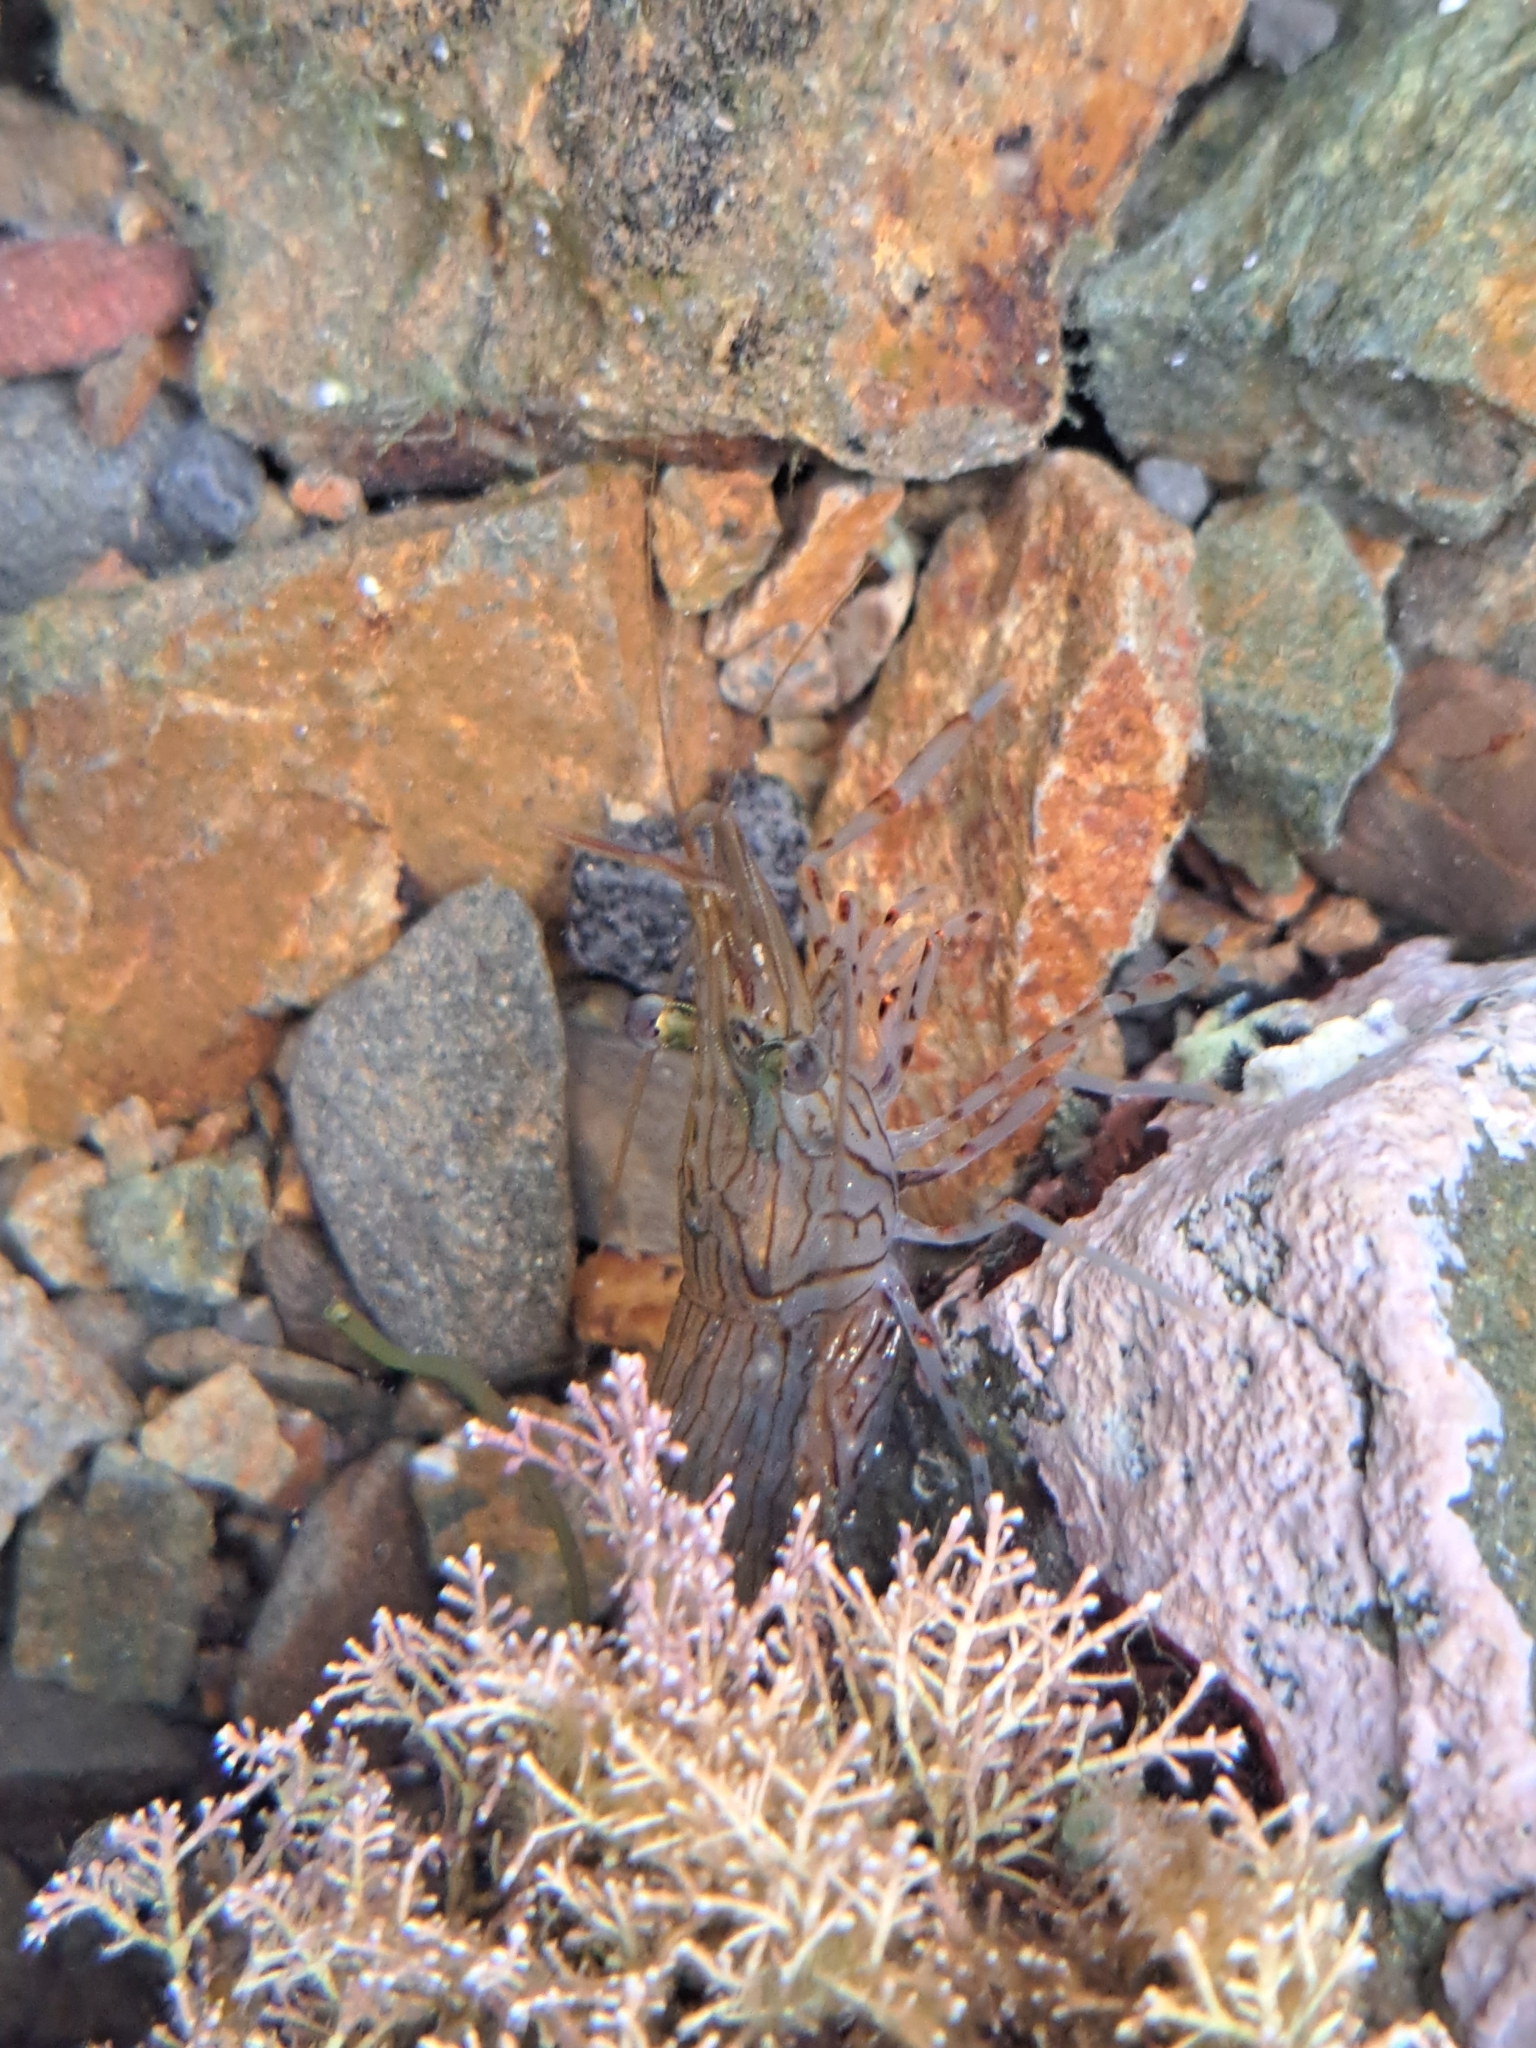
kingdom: Animalia
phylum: Arthropoda
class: Malacostraca
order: Decapoda
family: Palaemonidae
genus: Palaemon
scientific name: Palaemon affinis
